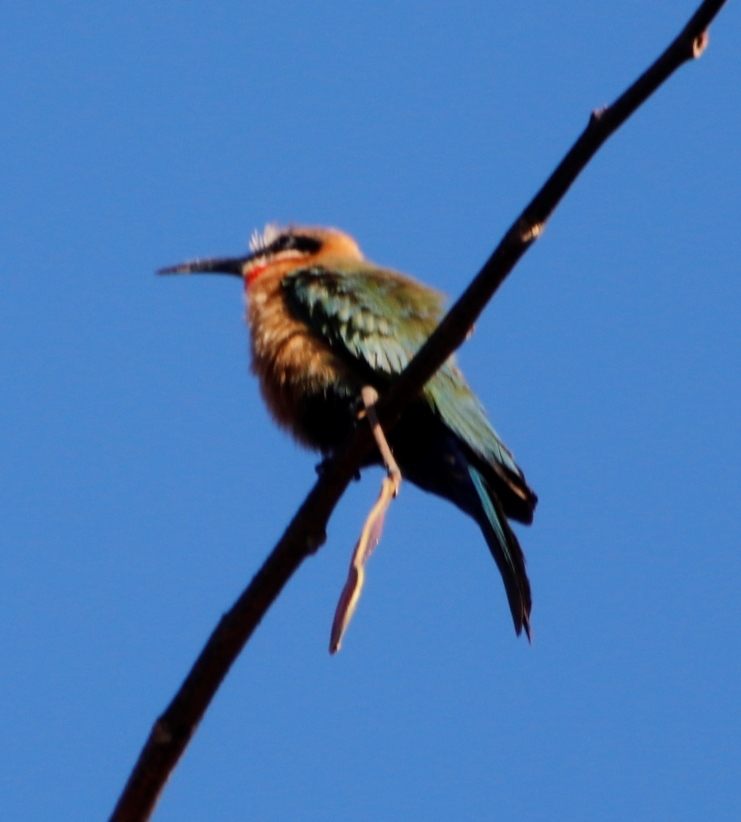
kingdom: Animalia
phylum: Chordata
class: Aves
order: Coraciiformes
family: Meropidae
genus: Merops
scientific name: Merops bullockoides
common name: White-fronted bee-eater
